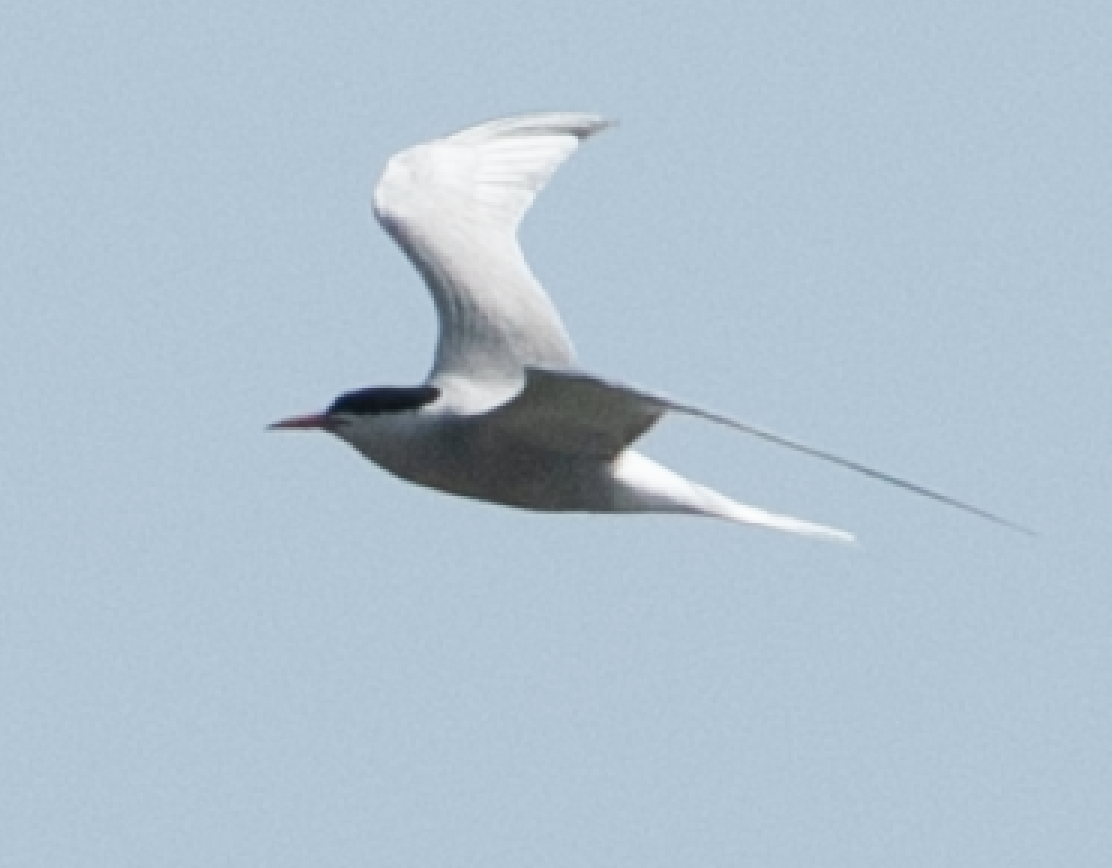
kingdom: Animalia
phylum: Chordata
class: Aves
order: Charadriiformes
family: Laridae
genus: Sterna
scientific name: Sterna hirundo
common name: Common tern
